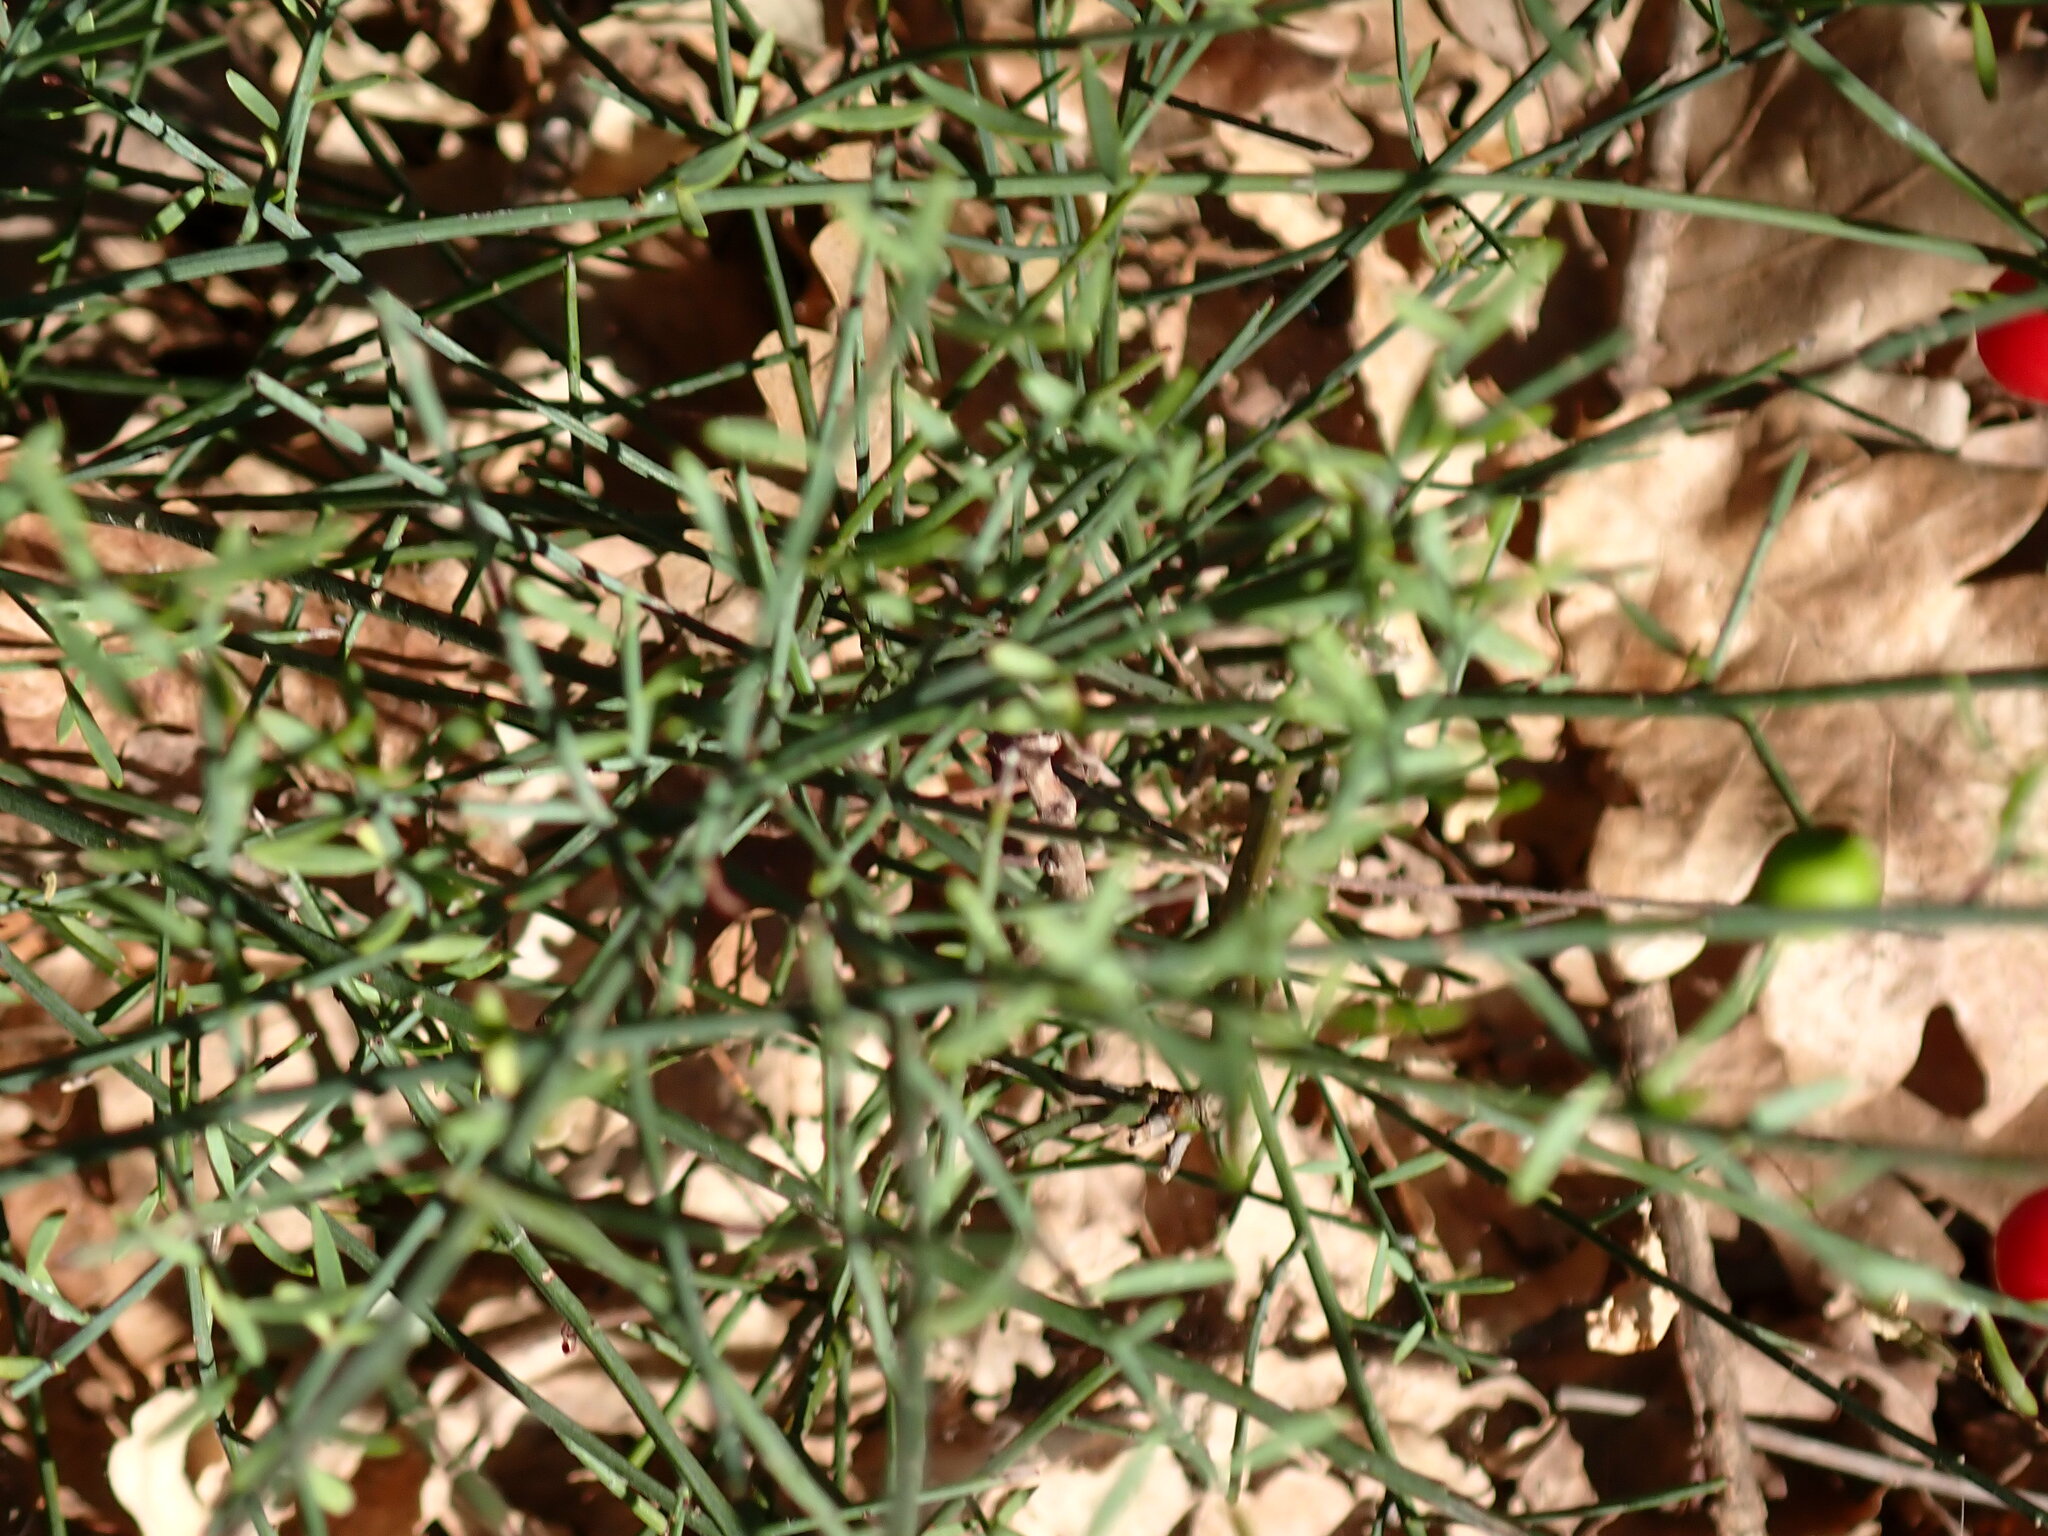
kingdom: Plantae
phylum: Tracheophyta
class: Magnoliopsida
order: Santalales
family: Santalaceae
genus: Osyris
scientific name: Osyris alba
